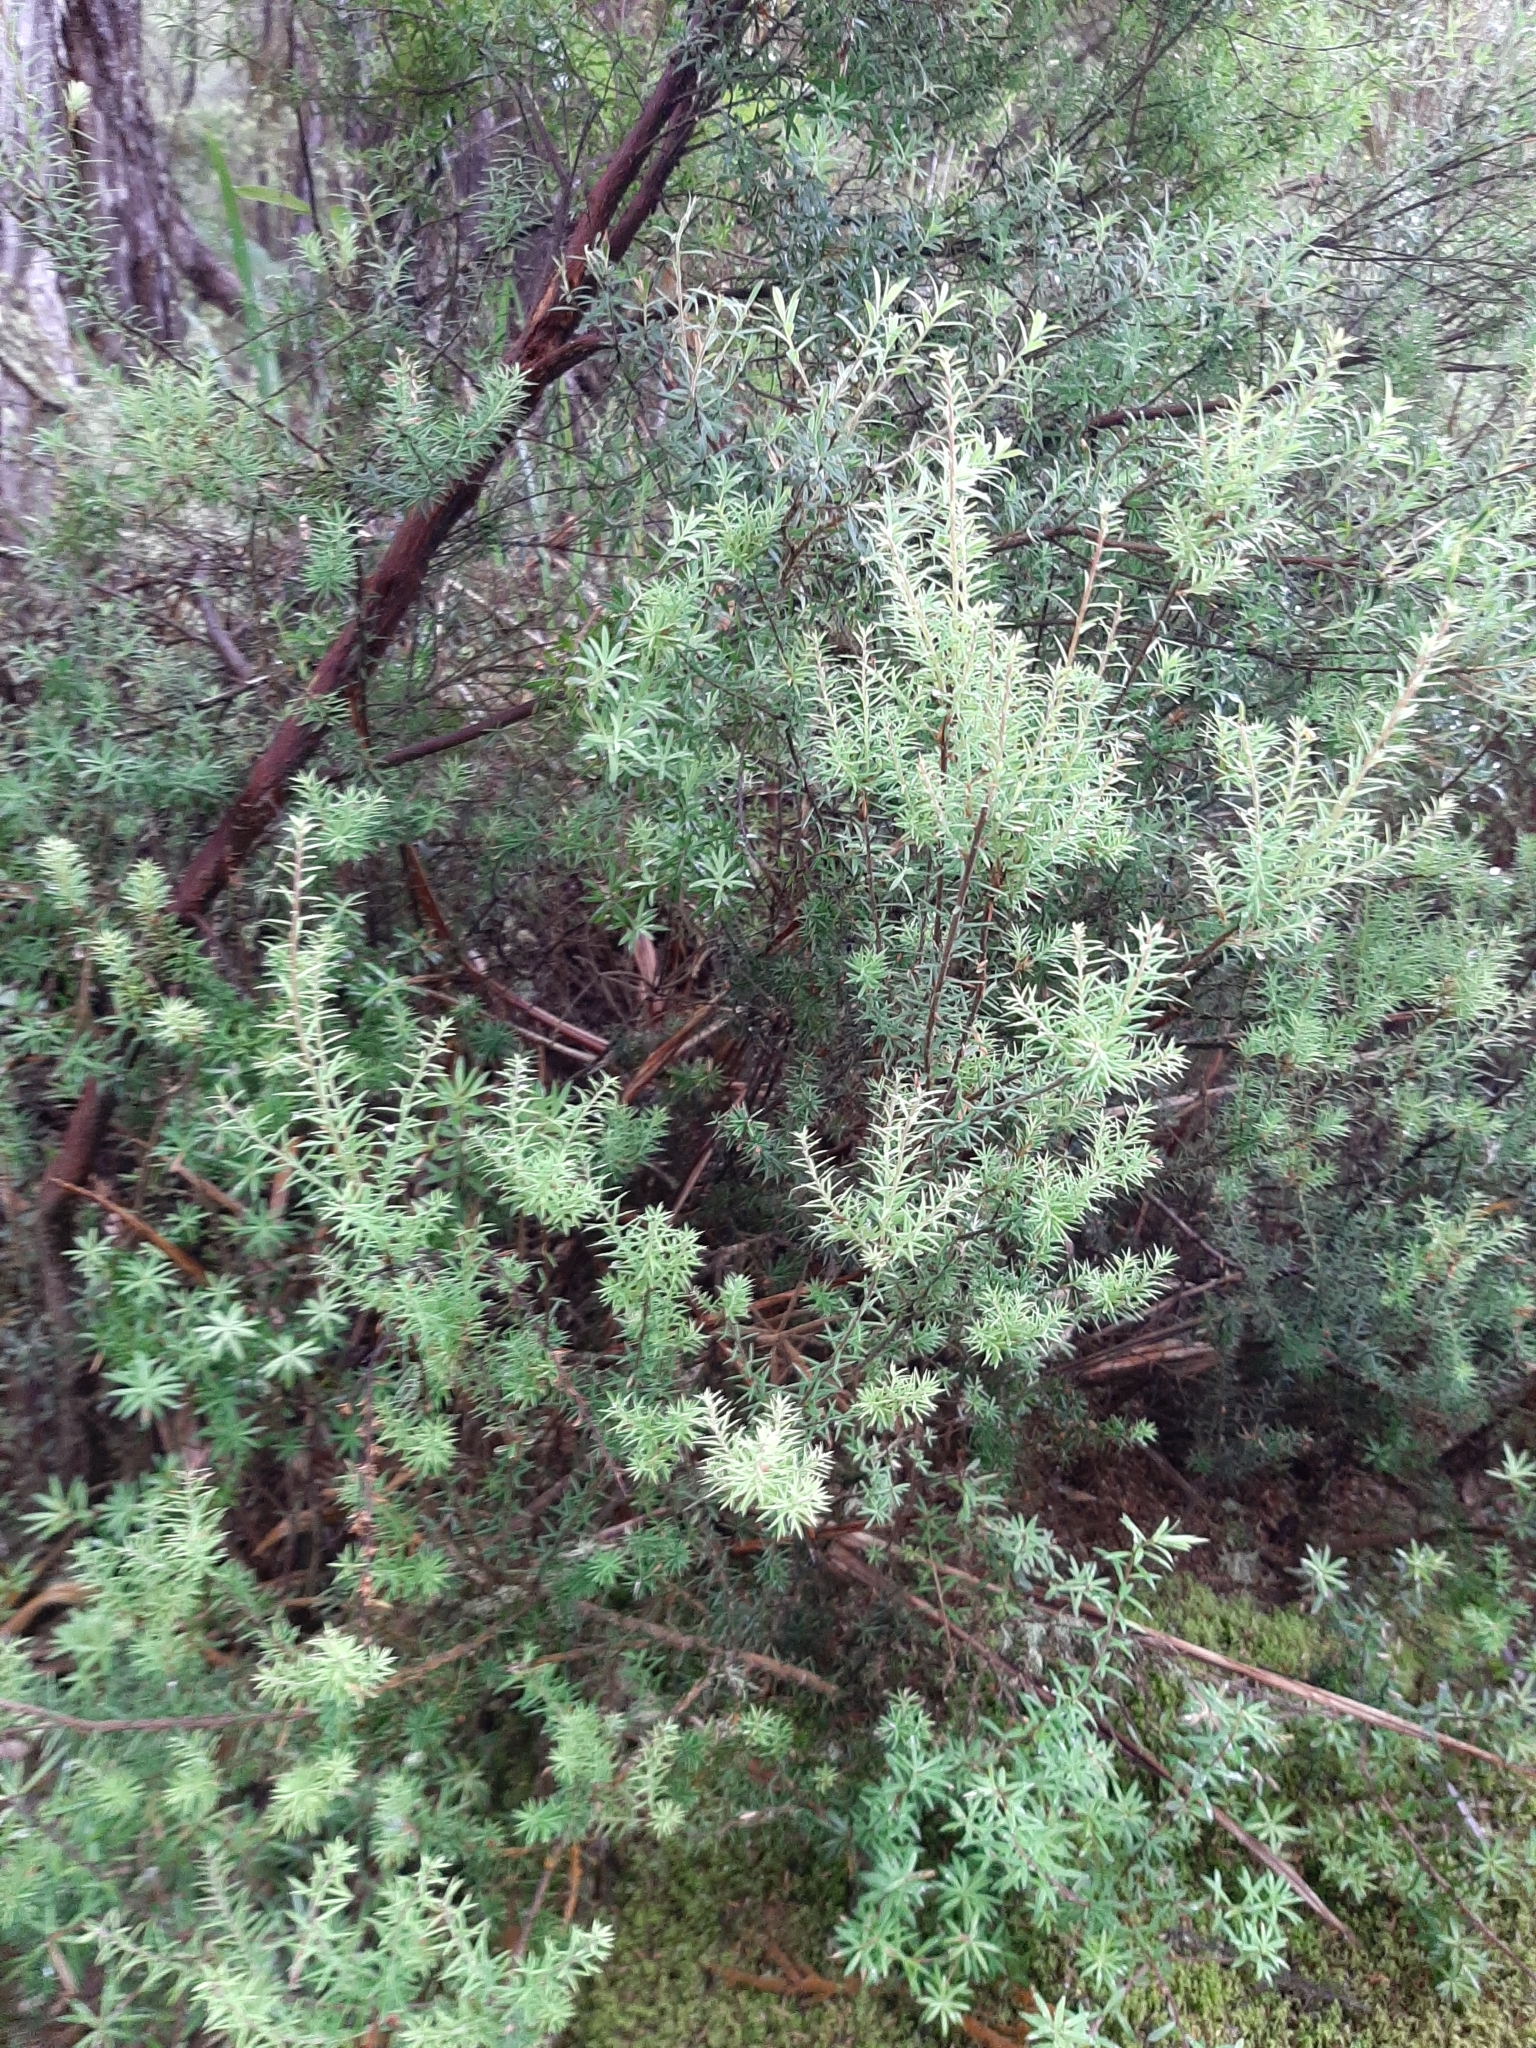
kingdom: Plantae
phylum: Tracheophyta
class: Magnoliopsida
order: Ericales
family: Ericaceae
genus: Leptecophylla
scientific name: Leptecophylla juniperina
